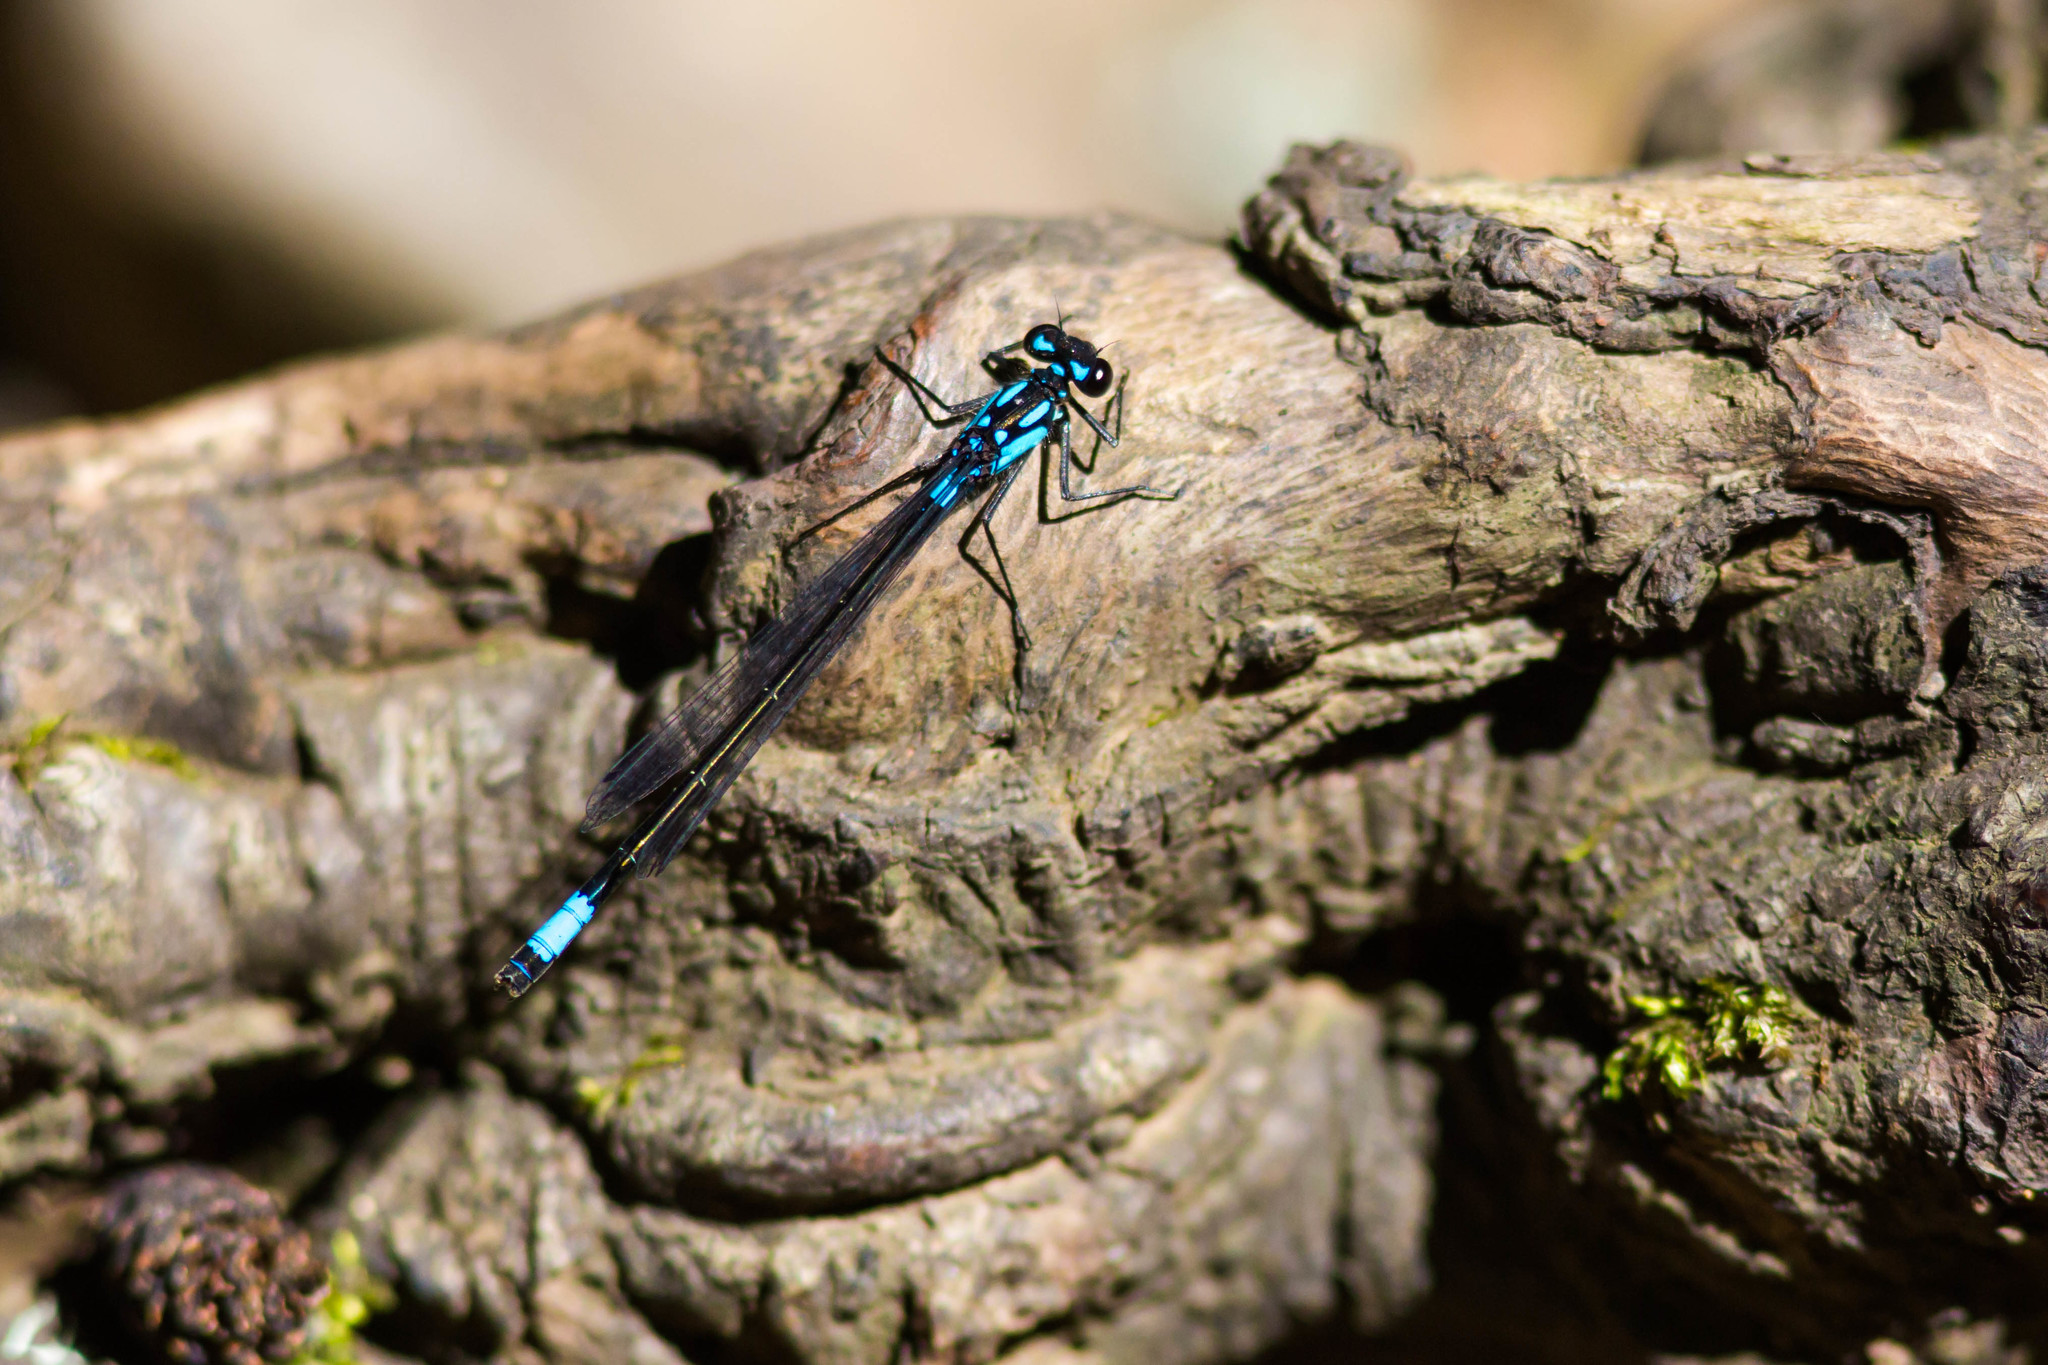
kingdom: Animalia
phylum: Arthropoda
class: Insecta
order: Odonata
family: Coenagrionidae
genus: Zoniagrion
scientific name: Zoniagrion exclamationis
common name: Exclamation damsel
